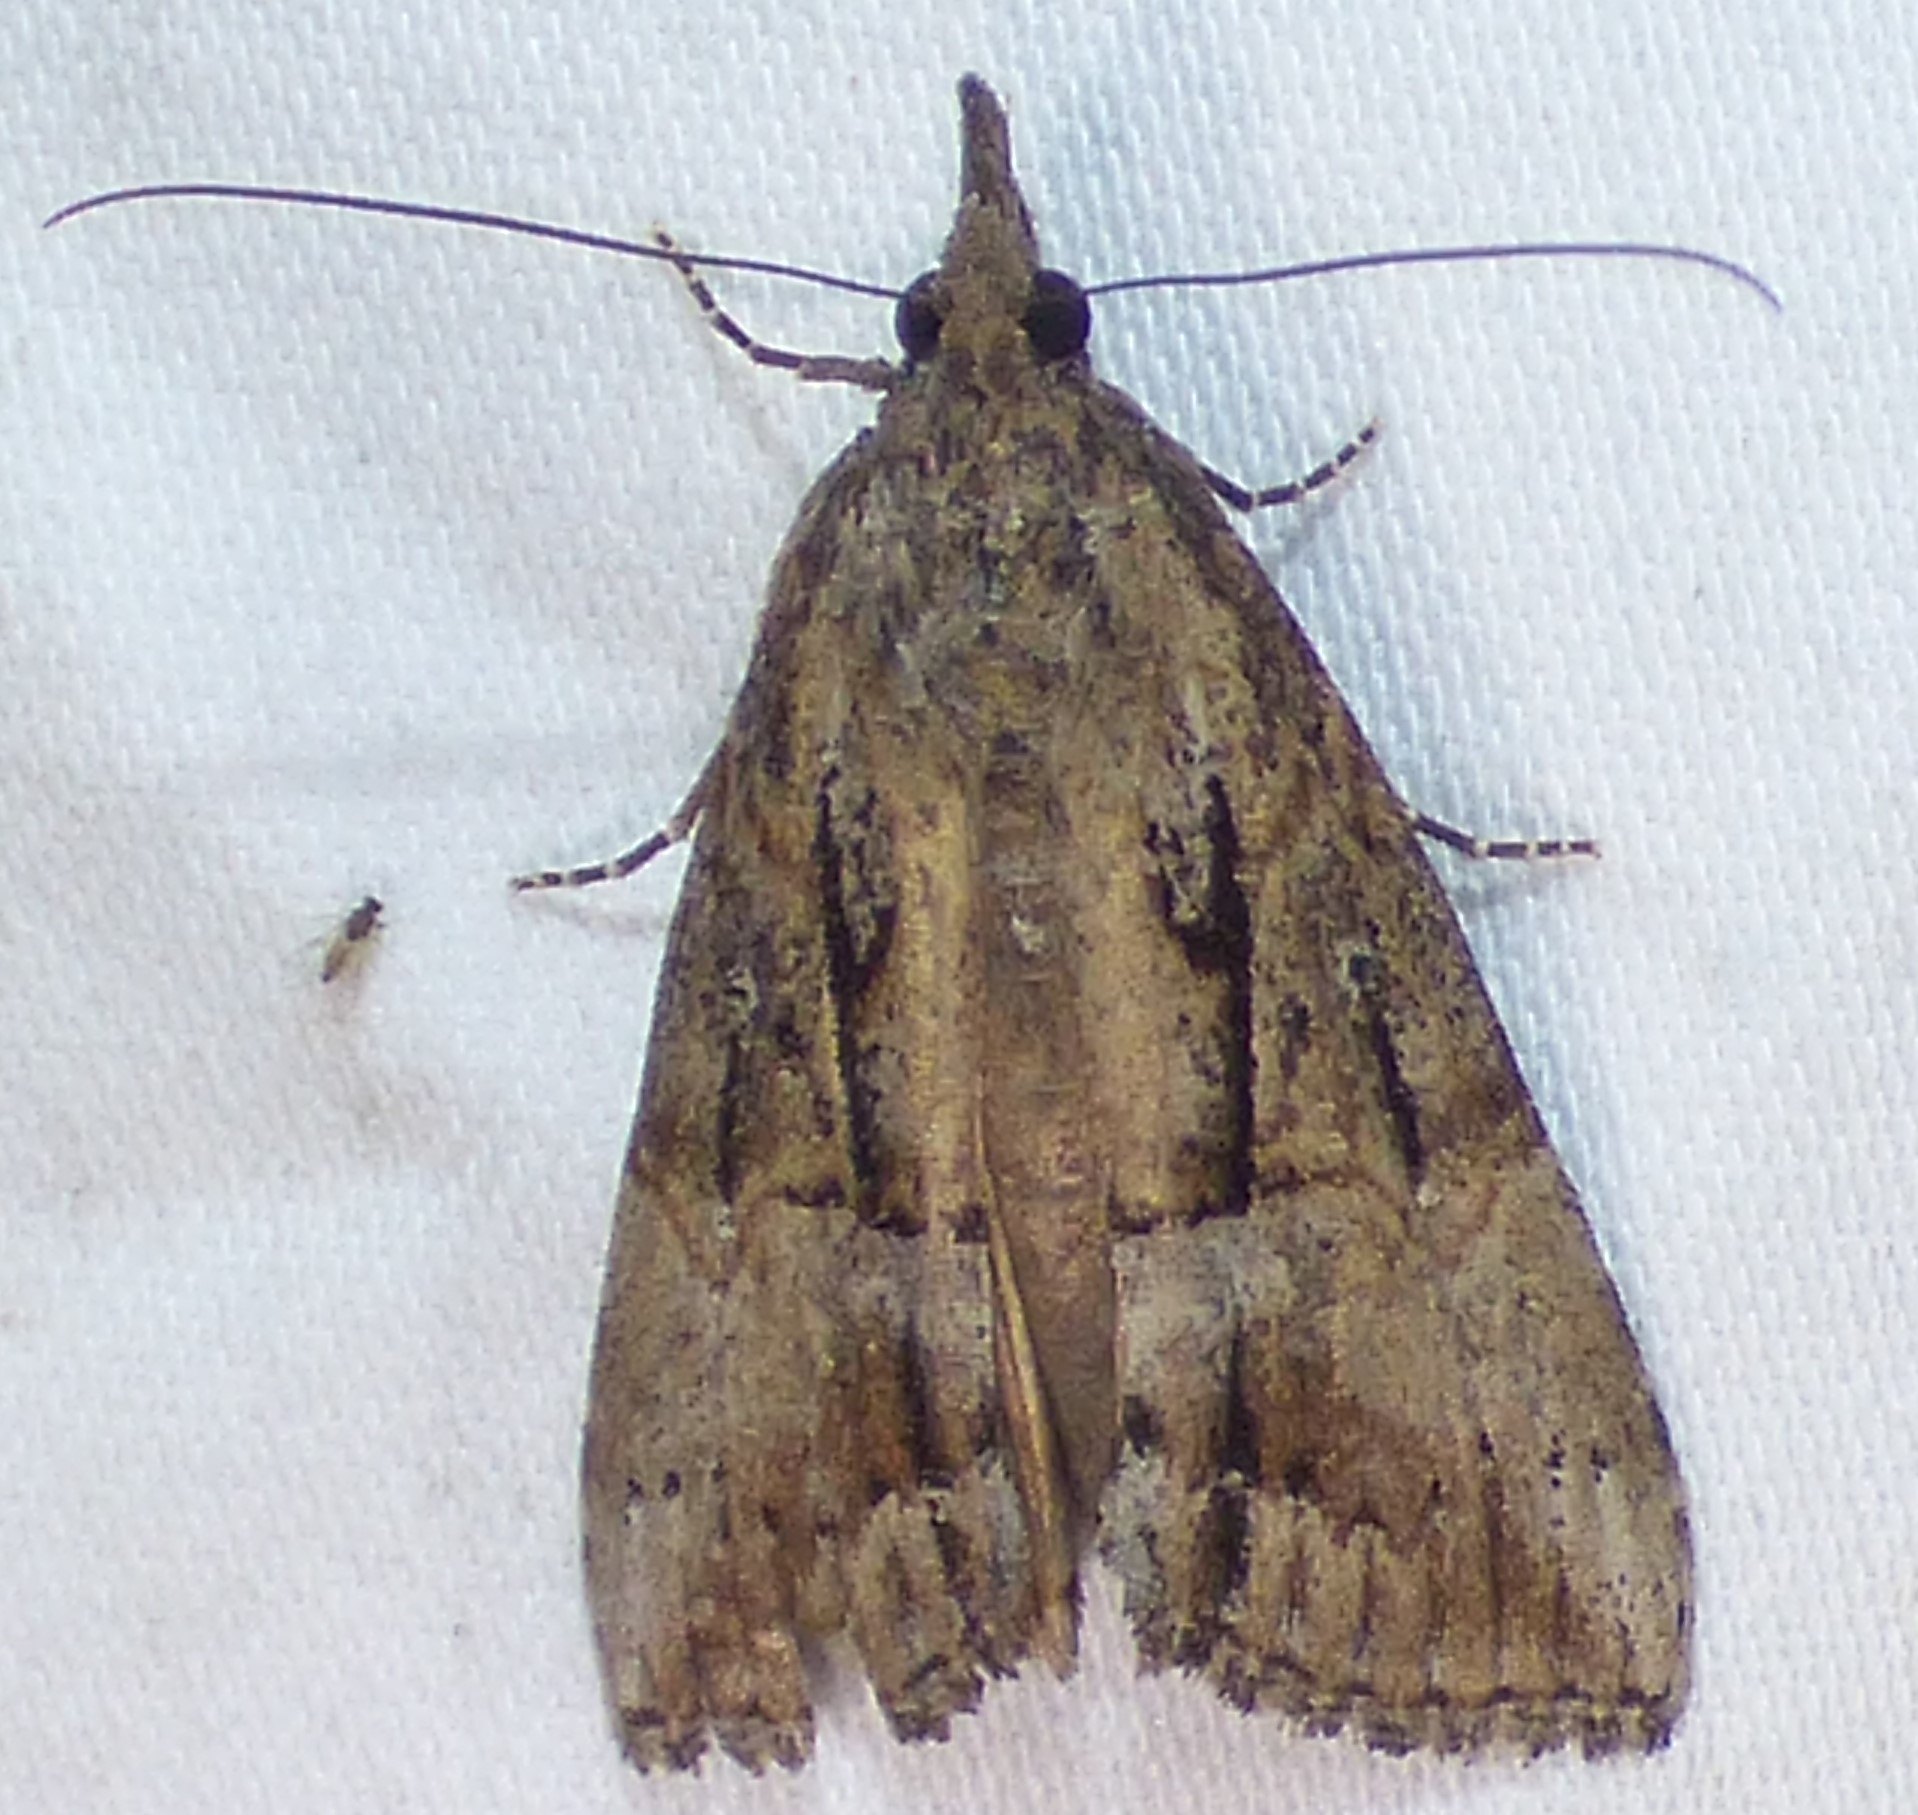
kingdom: Animalia
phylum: Arthropoda
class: Insecta
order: Lepidoptera
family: Erebidae
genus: Hypena
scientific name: Hypena scabra
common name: Green cloverworm
